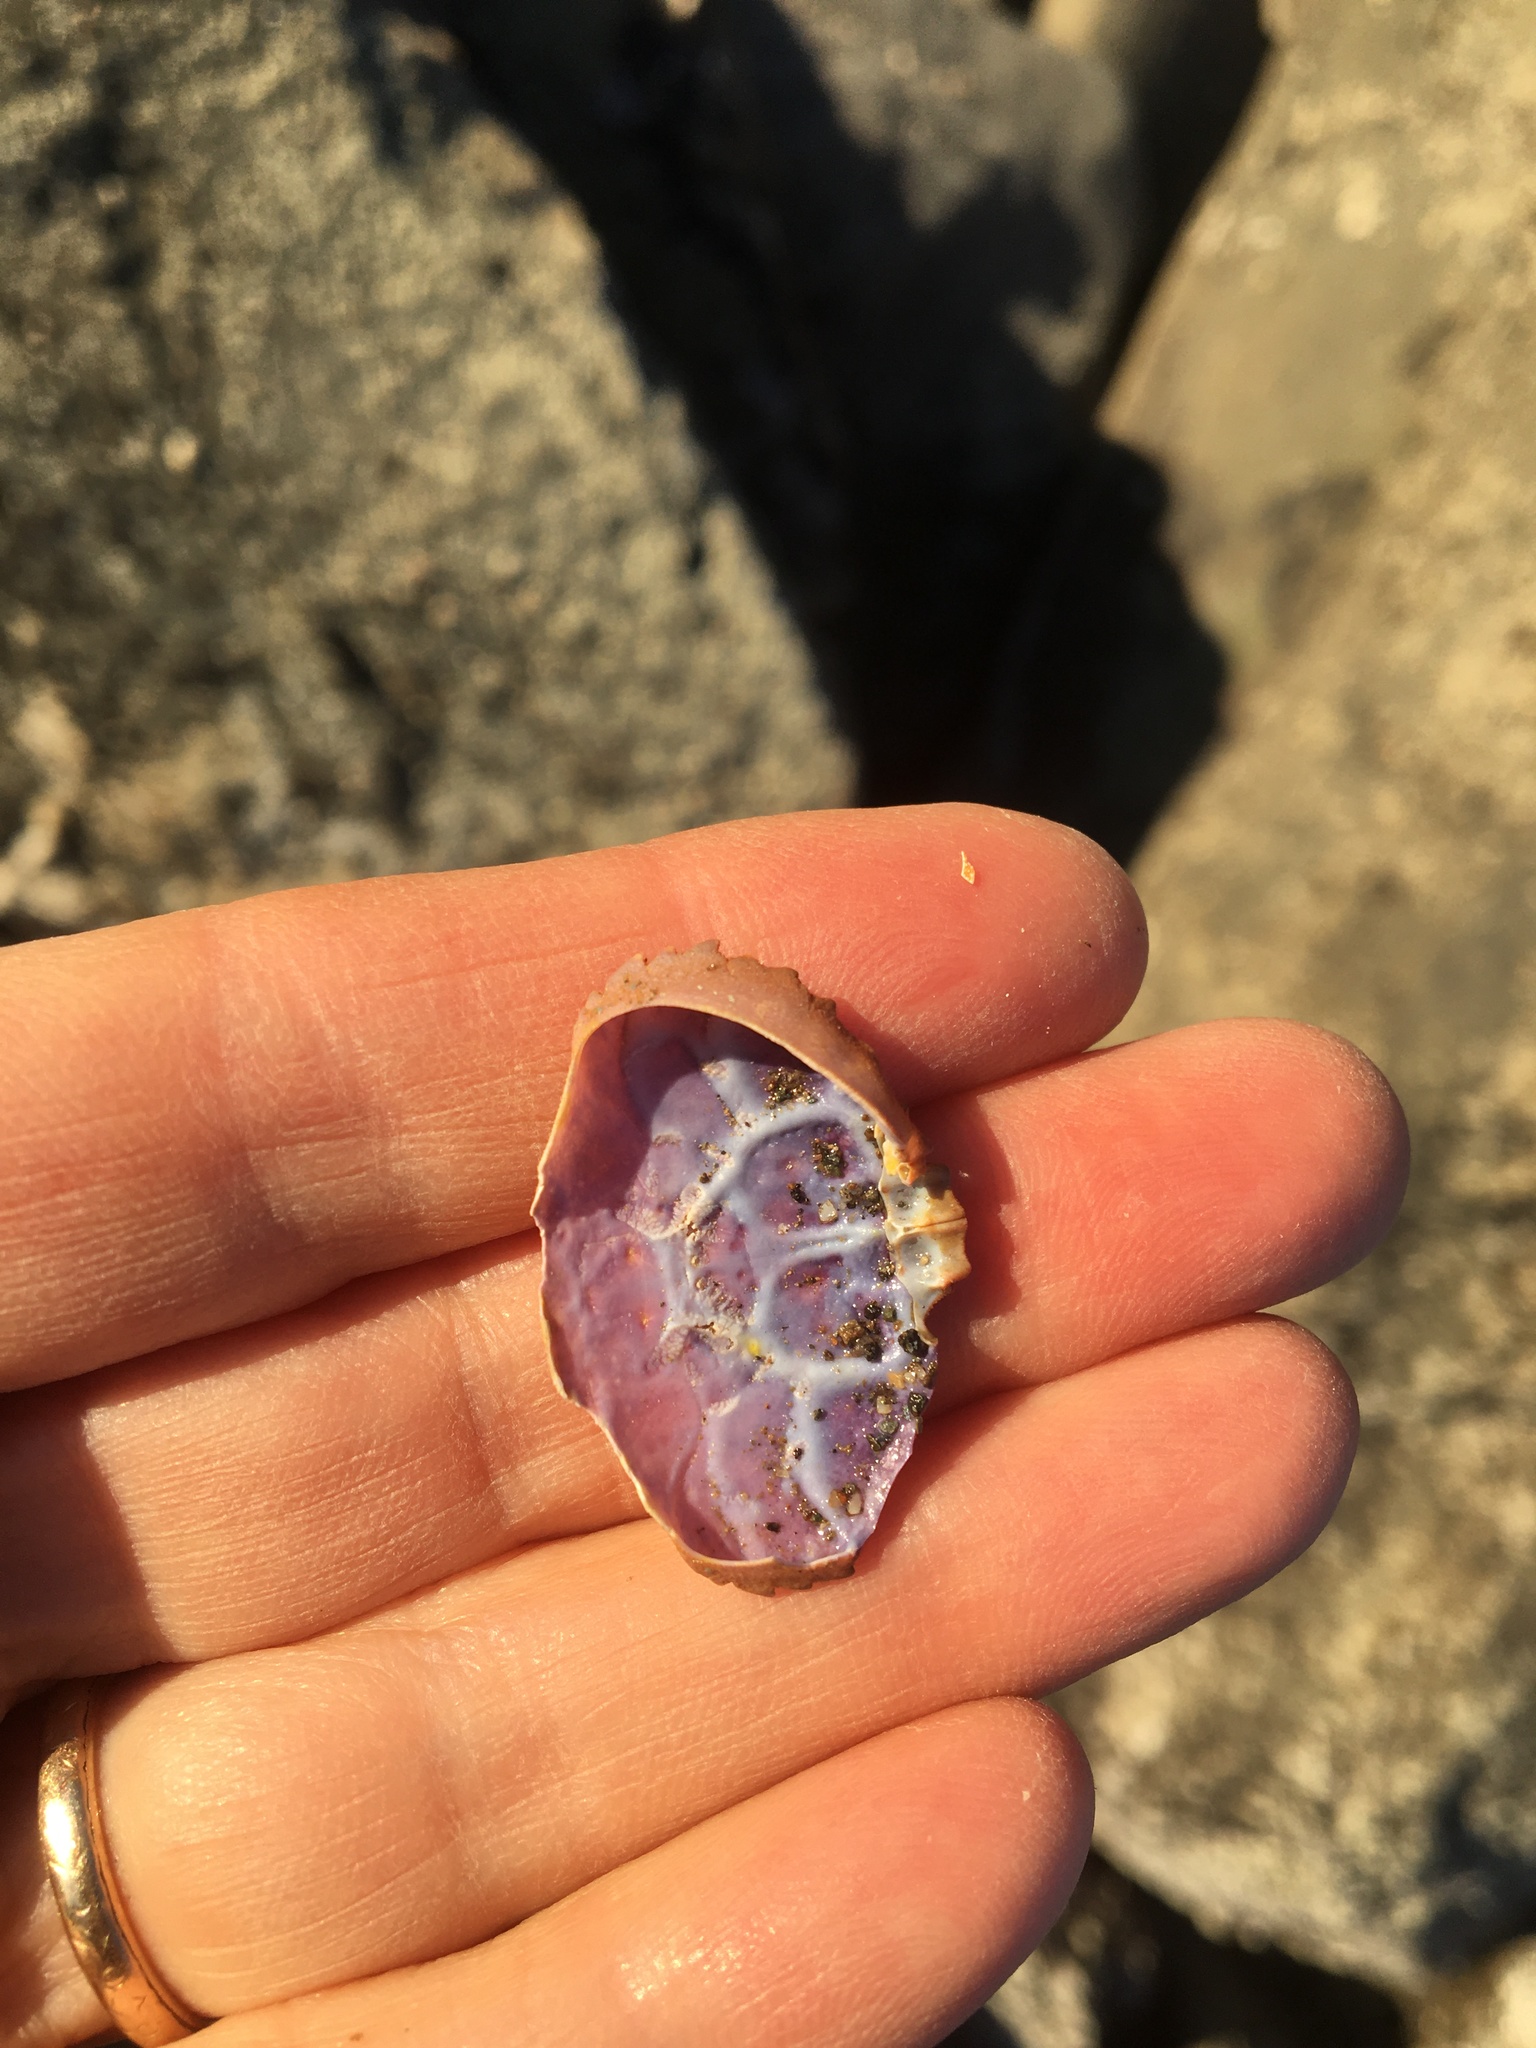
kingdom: Animalia
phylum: Arthropoda
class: Malacostraca
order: Decapoda
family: Xanthidae
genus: Cycloxanthops
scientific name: Cycloxanthops novemdentatus
